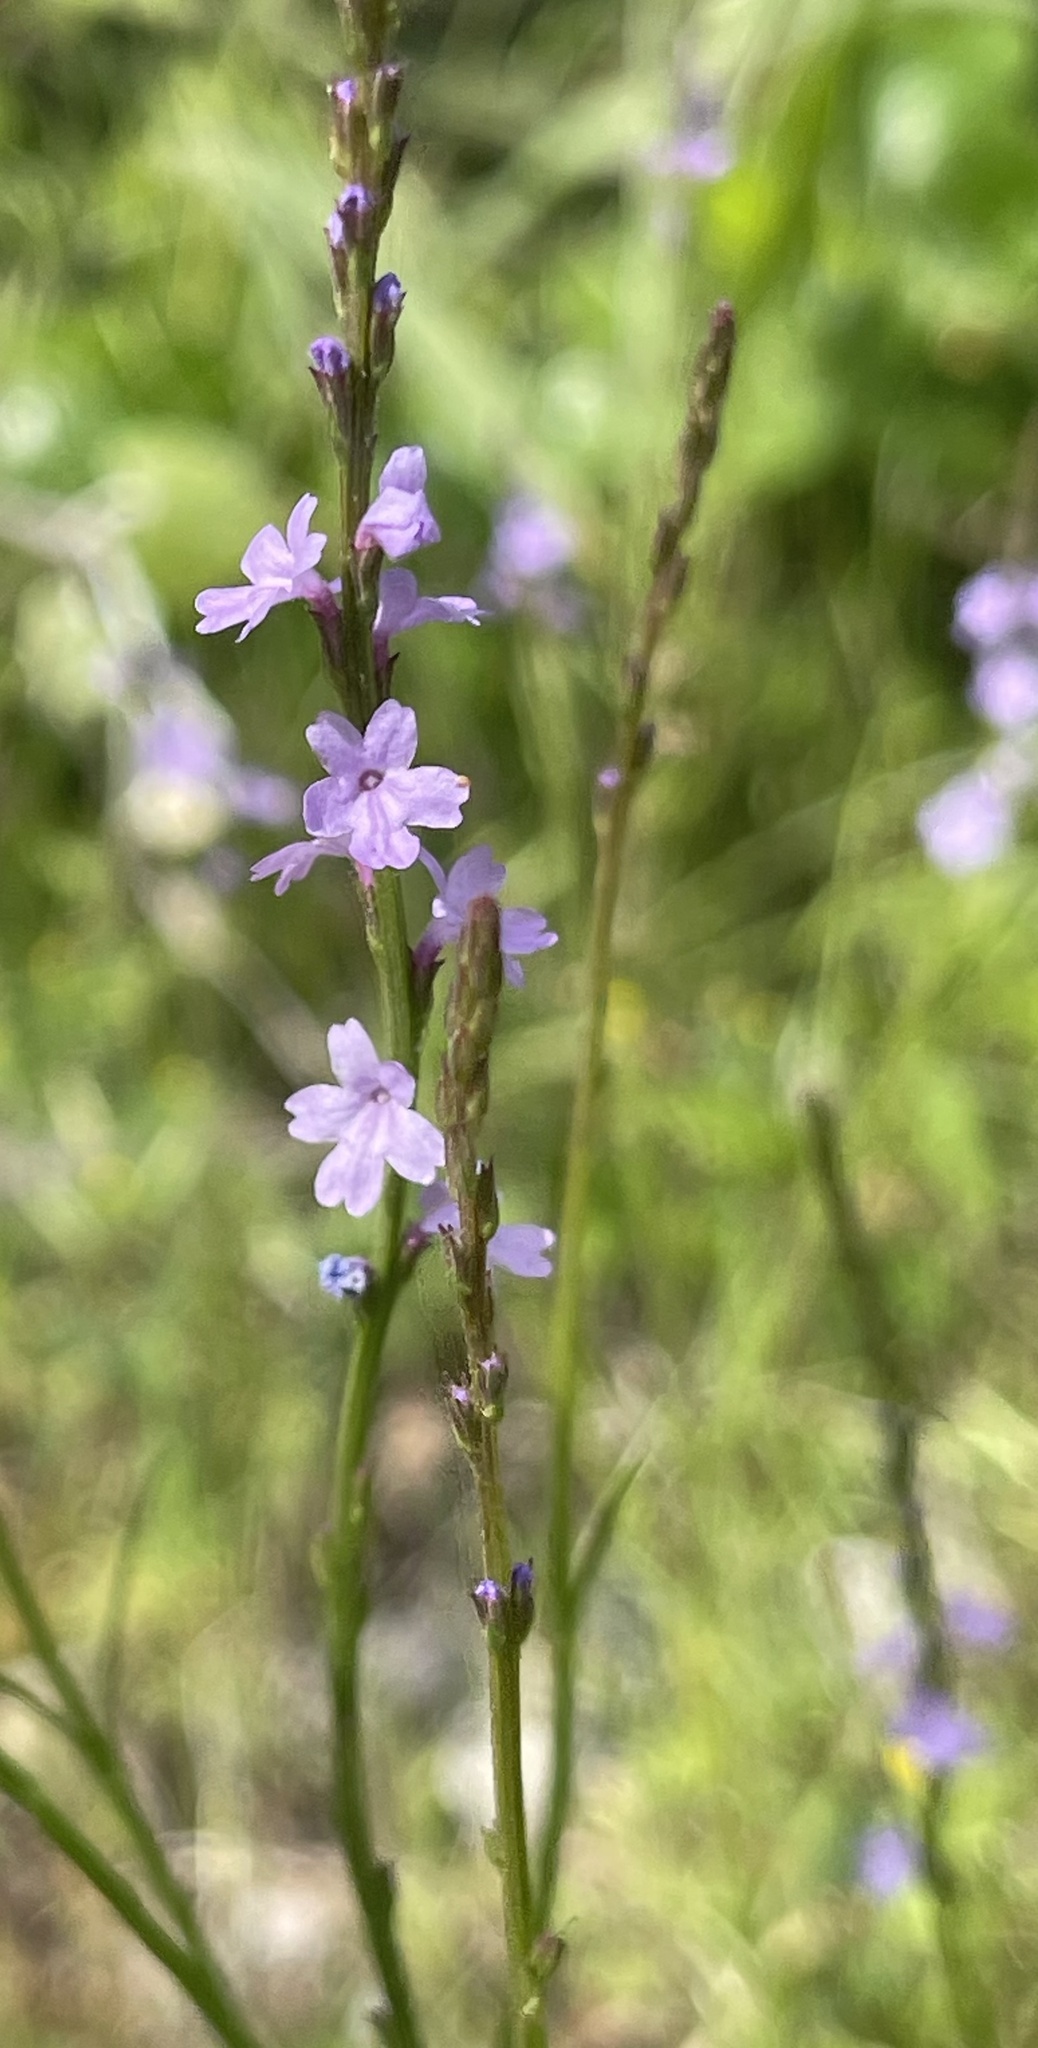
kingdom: Plantae
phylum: Tracheophyta
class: Magnoliopsida
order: Lamiales
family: Verbenaceae
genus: Verbena
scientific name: Verbena halei
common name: Texas vervain
